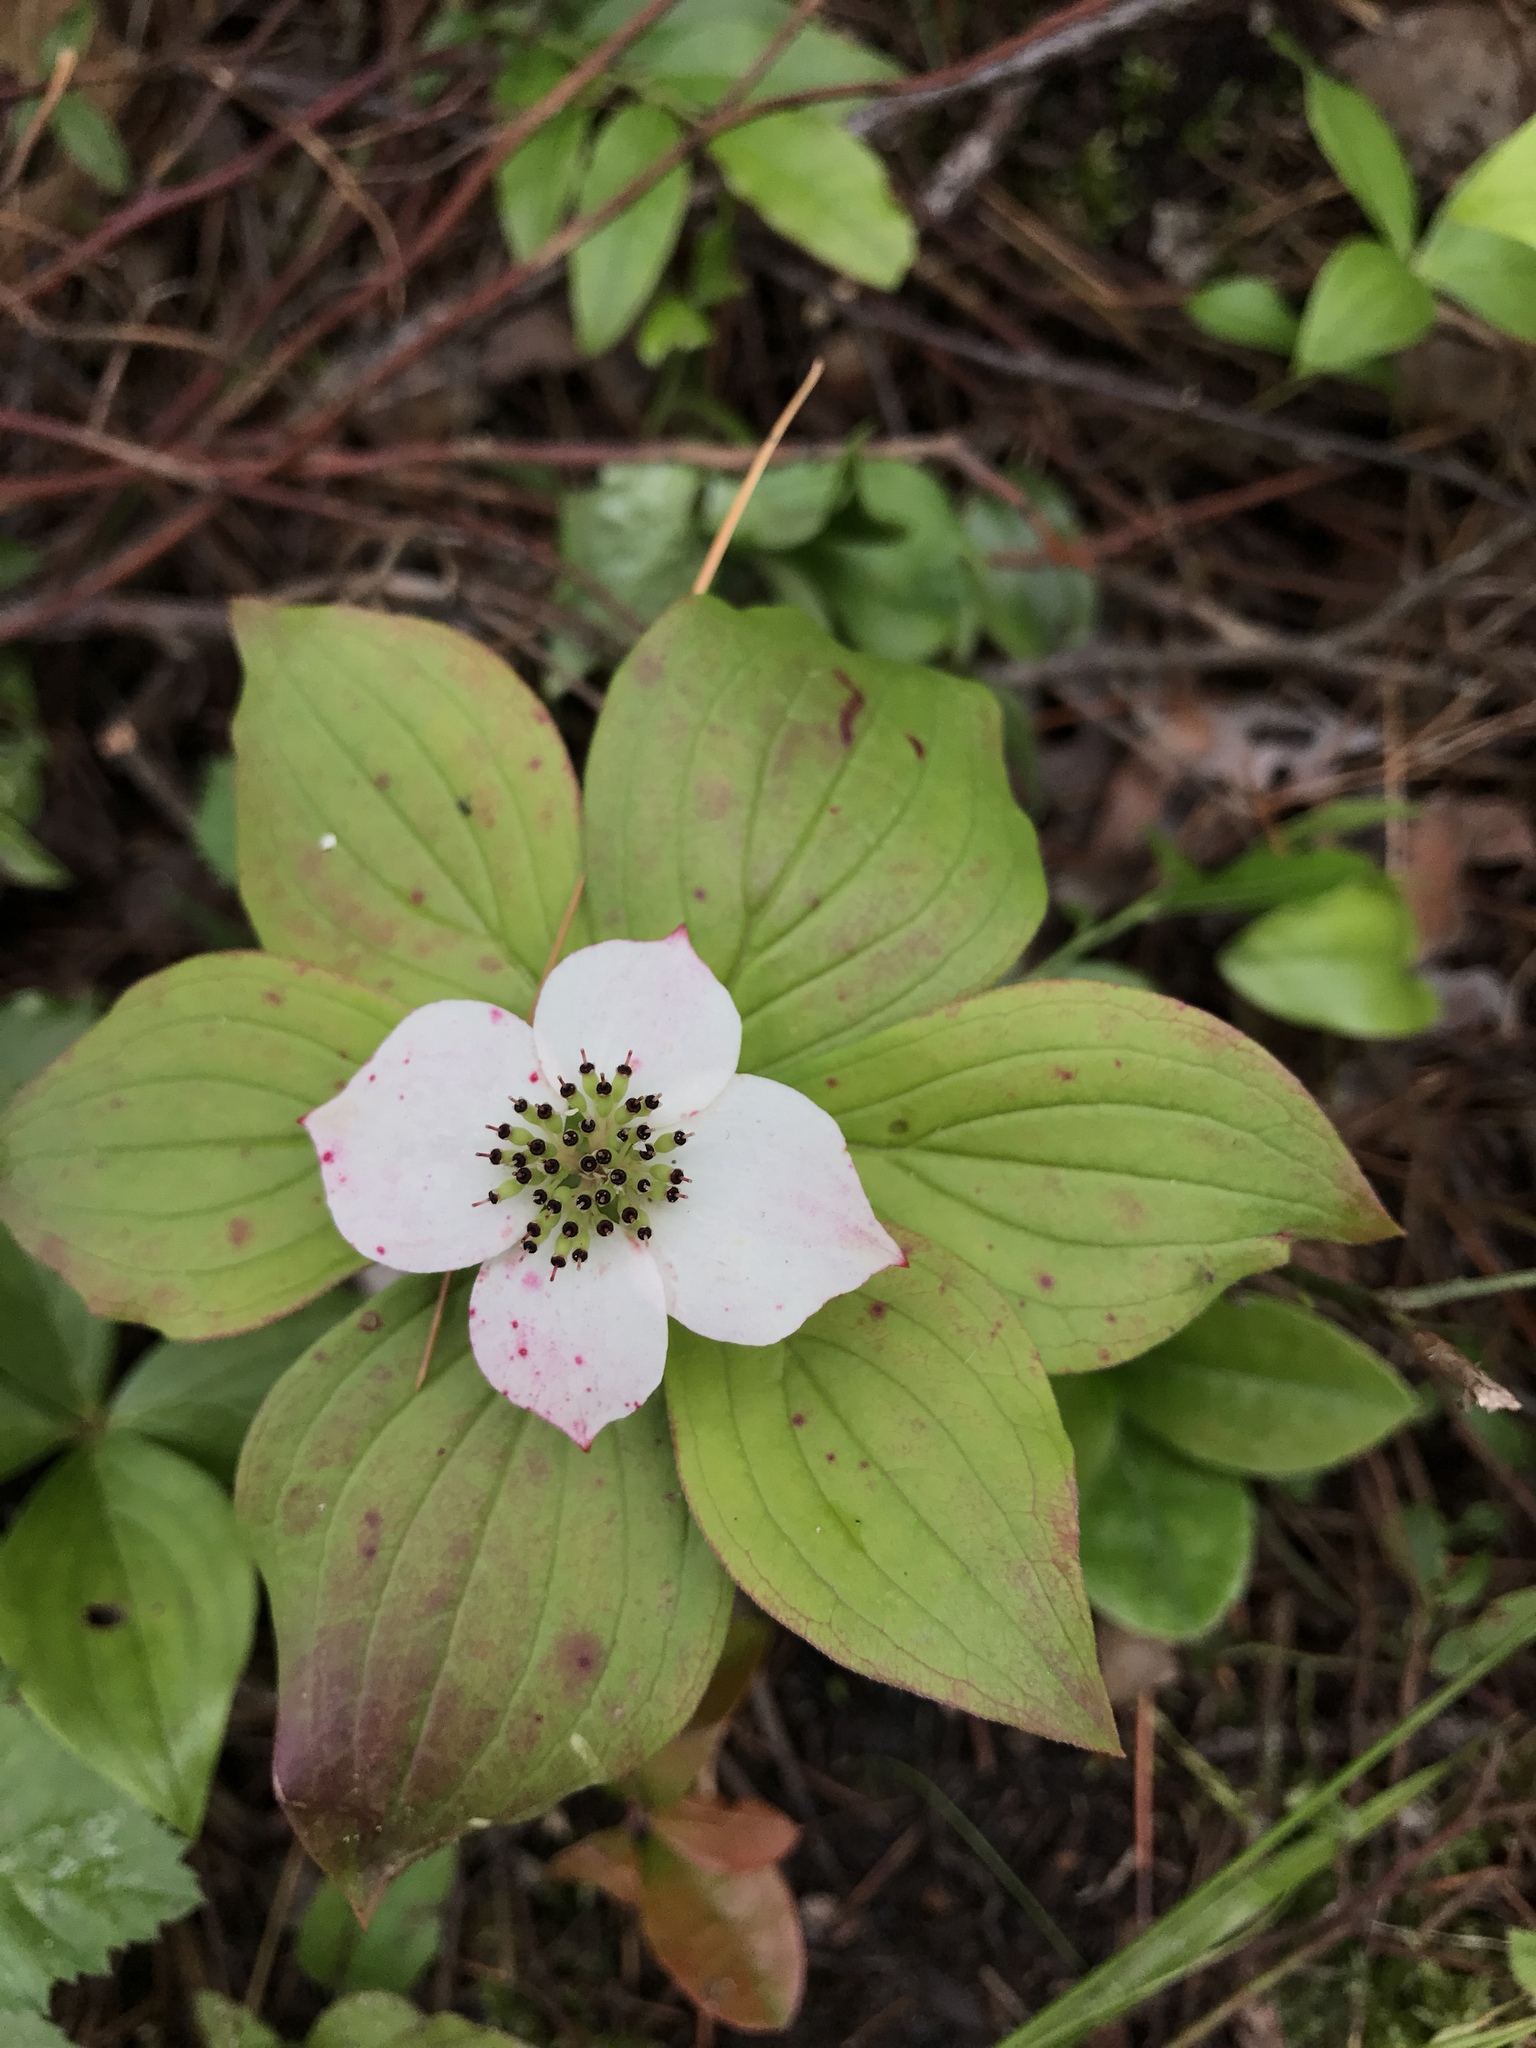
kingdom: Plantae
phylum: Tracheophyta
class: Magnoliopsida
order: Cornales
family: Cornaceae
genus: Cornus
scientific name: Cornus canadensis
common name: Creeping dogwood
